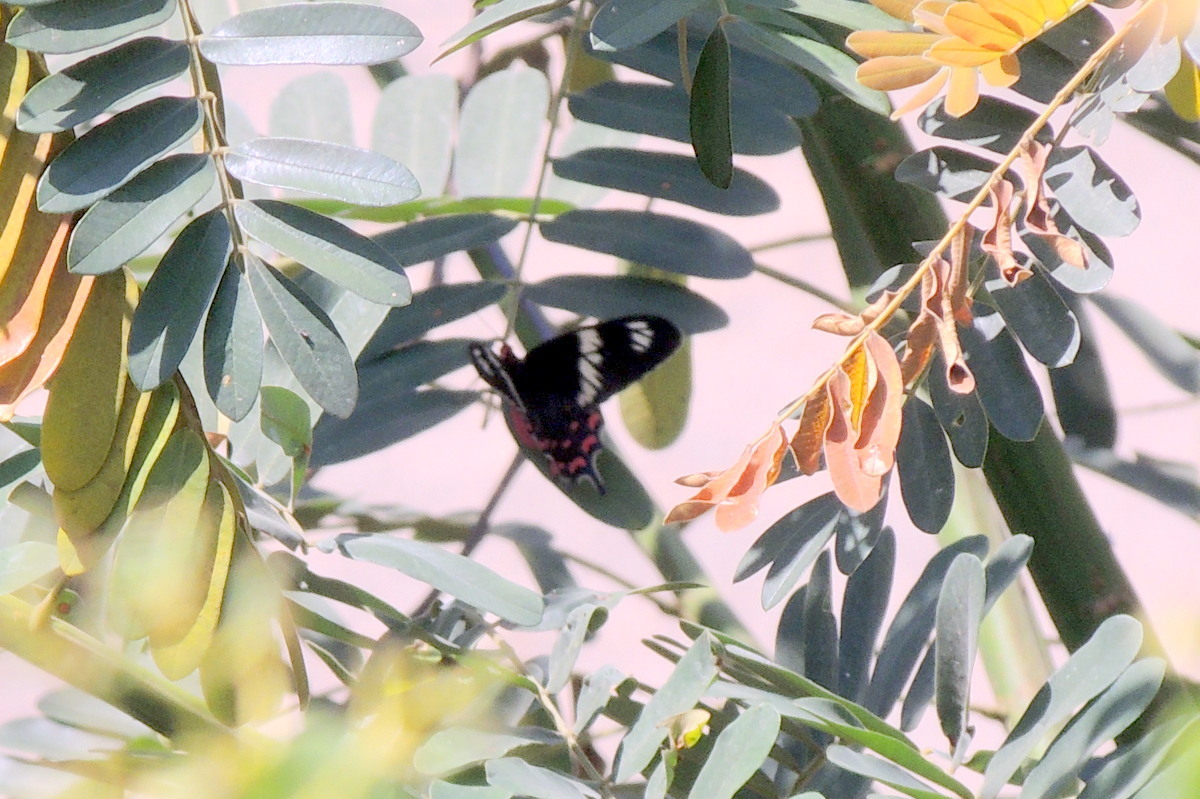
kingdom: Animalia
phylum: Arthropoda
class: Insecta
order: Lepidoptera
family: Papilionidae
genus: Pachliopta
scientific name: Pachliopta hector
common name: Crimson rose
